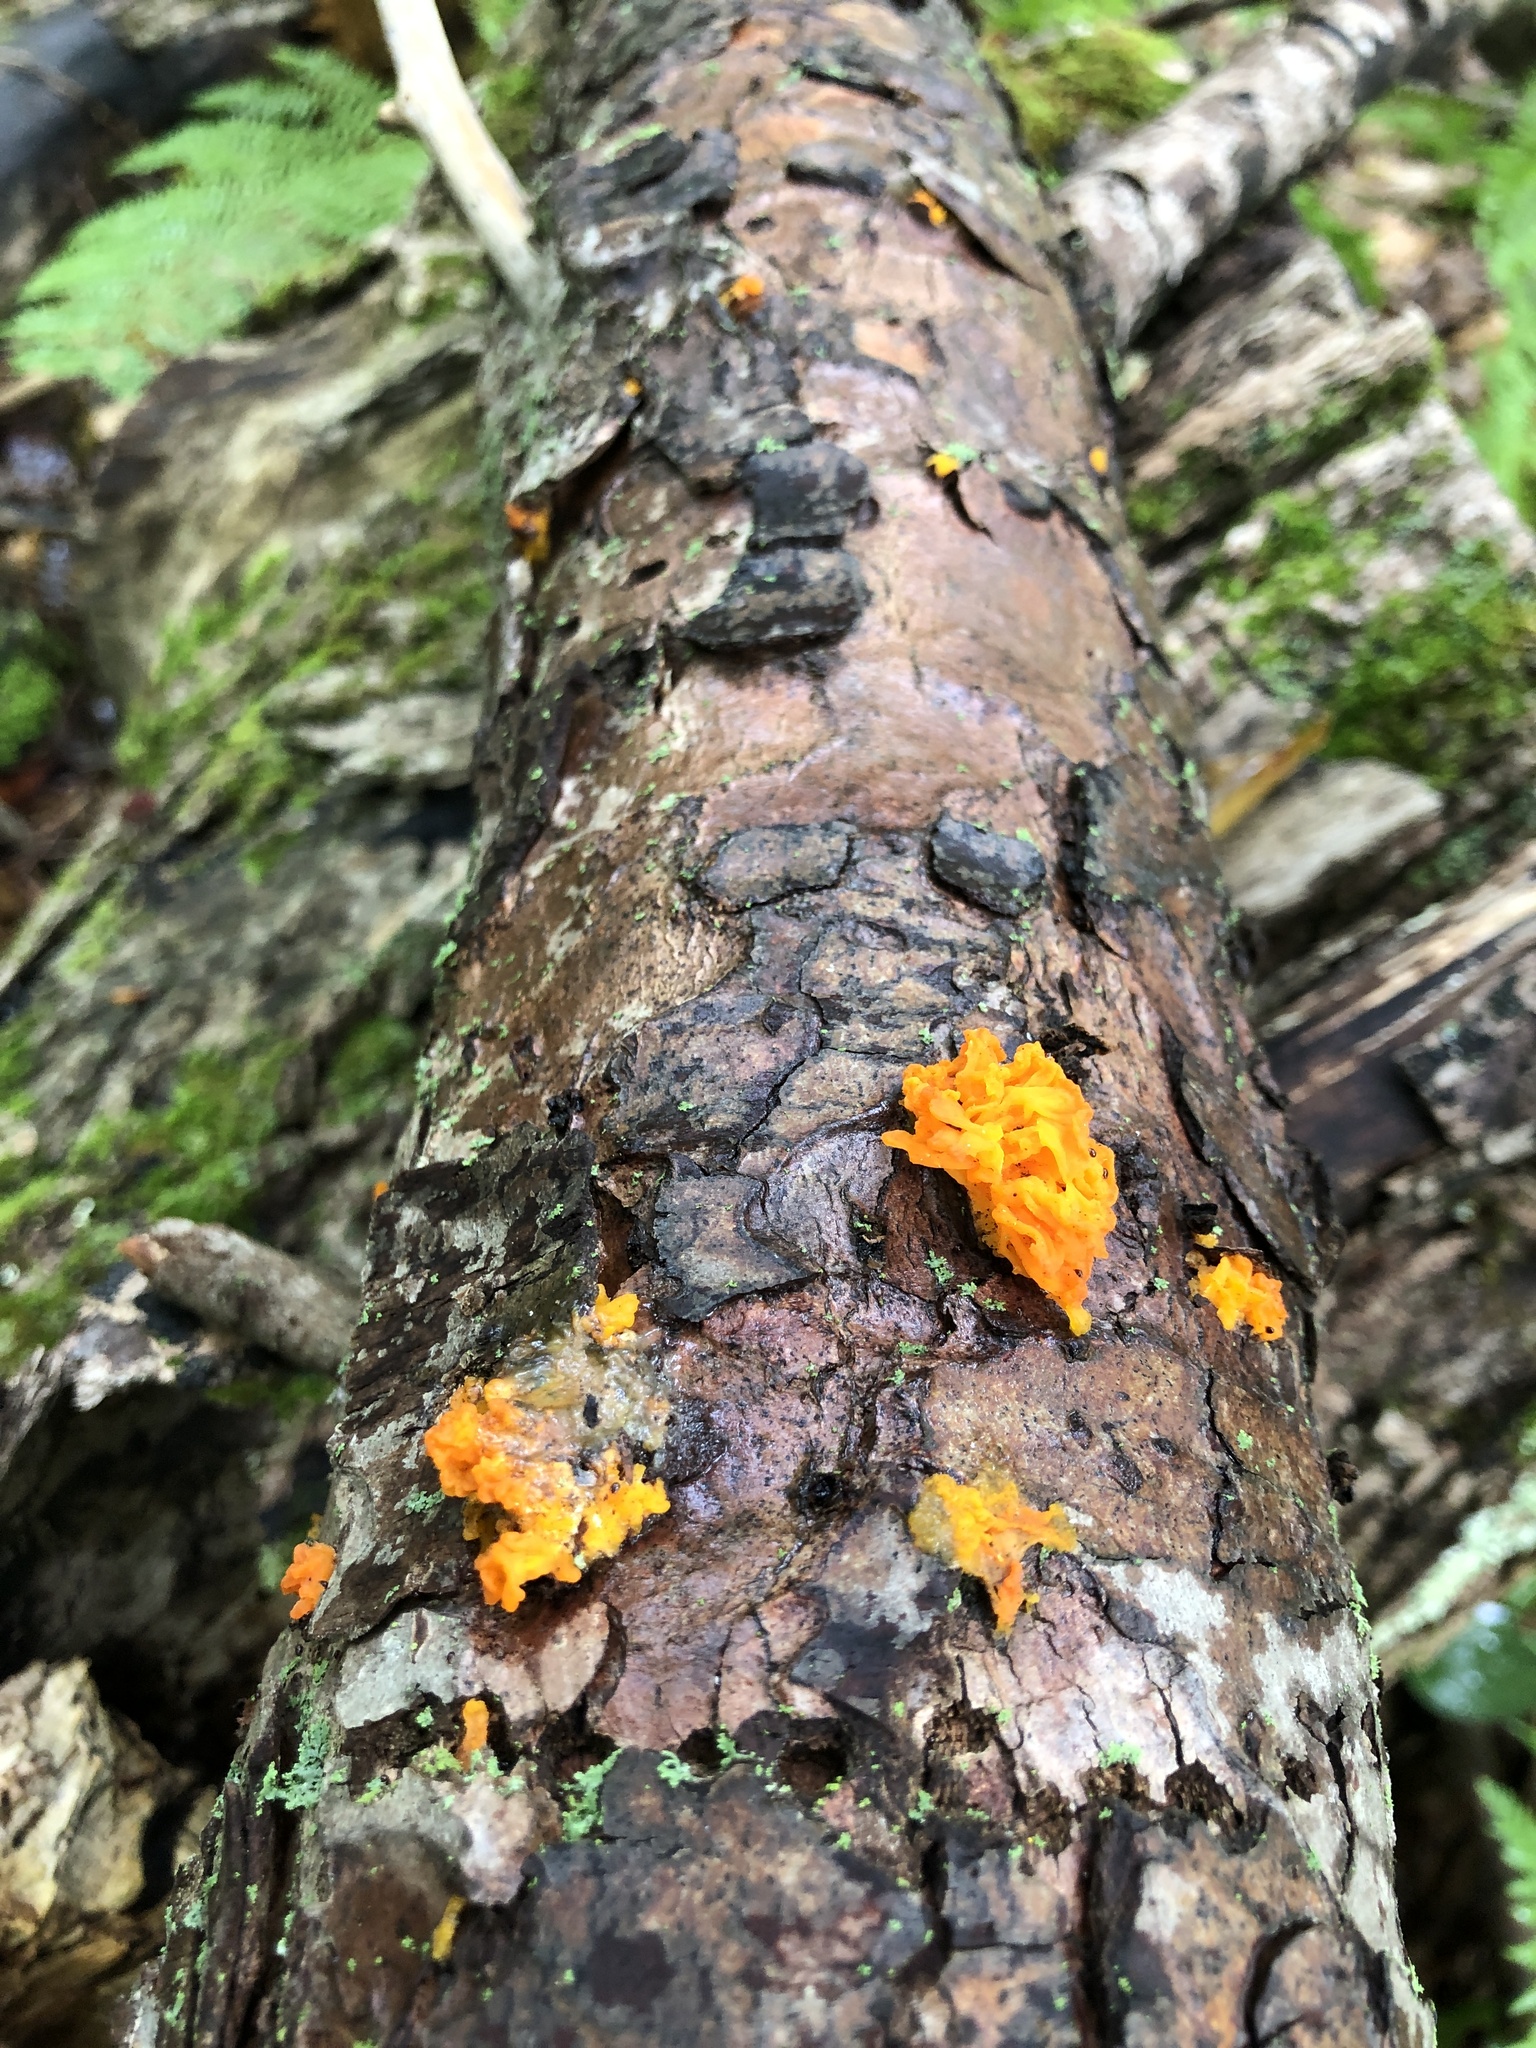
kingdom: Fungi
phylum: Basidiomycota
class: Dacrymycetes
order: Dacrymycetales
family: Dacrymycetaceae
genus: Dacrymyces
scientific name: Dacrymyces chrysospermus
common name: Orange jelly spot
